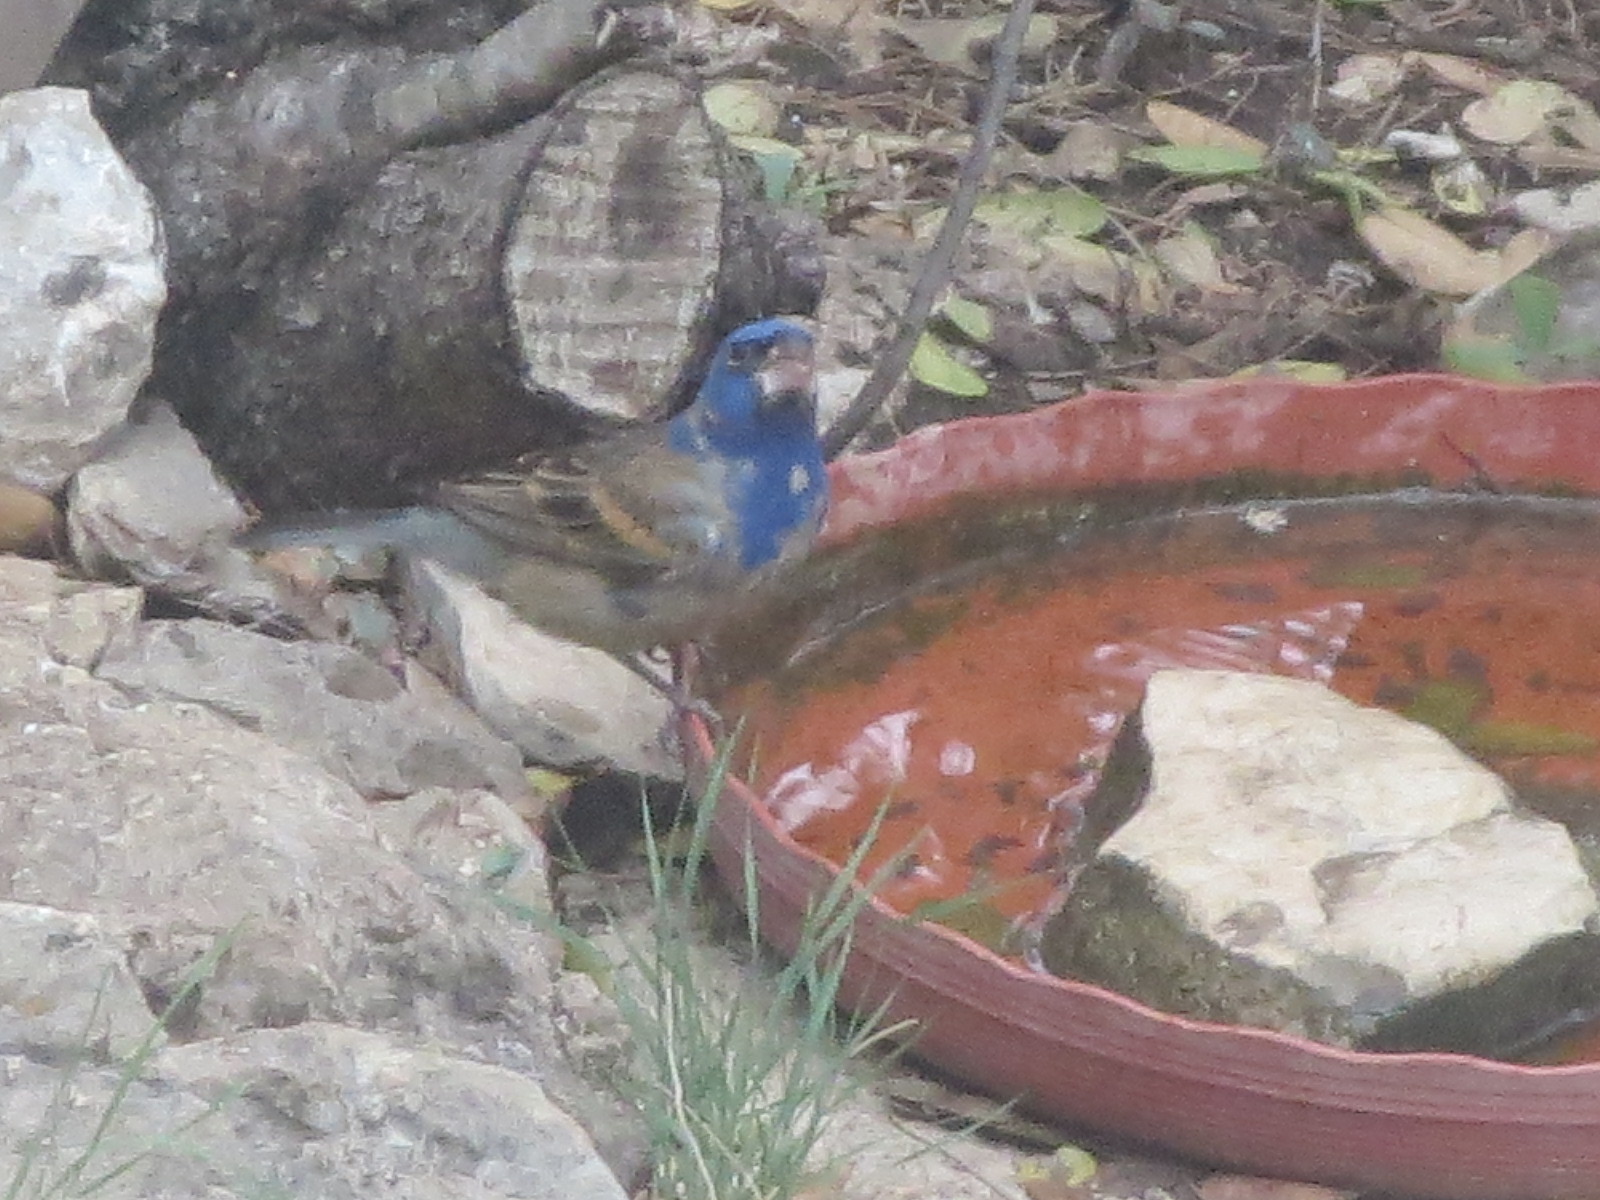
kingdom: Animalia
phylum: Chordata
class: Aves
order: Passeriformes
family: Cardinalidae
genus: Passerina
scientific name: Passerina caerulea
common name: Blue grosbeak
